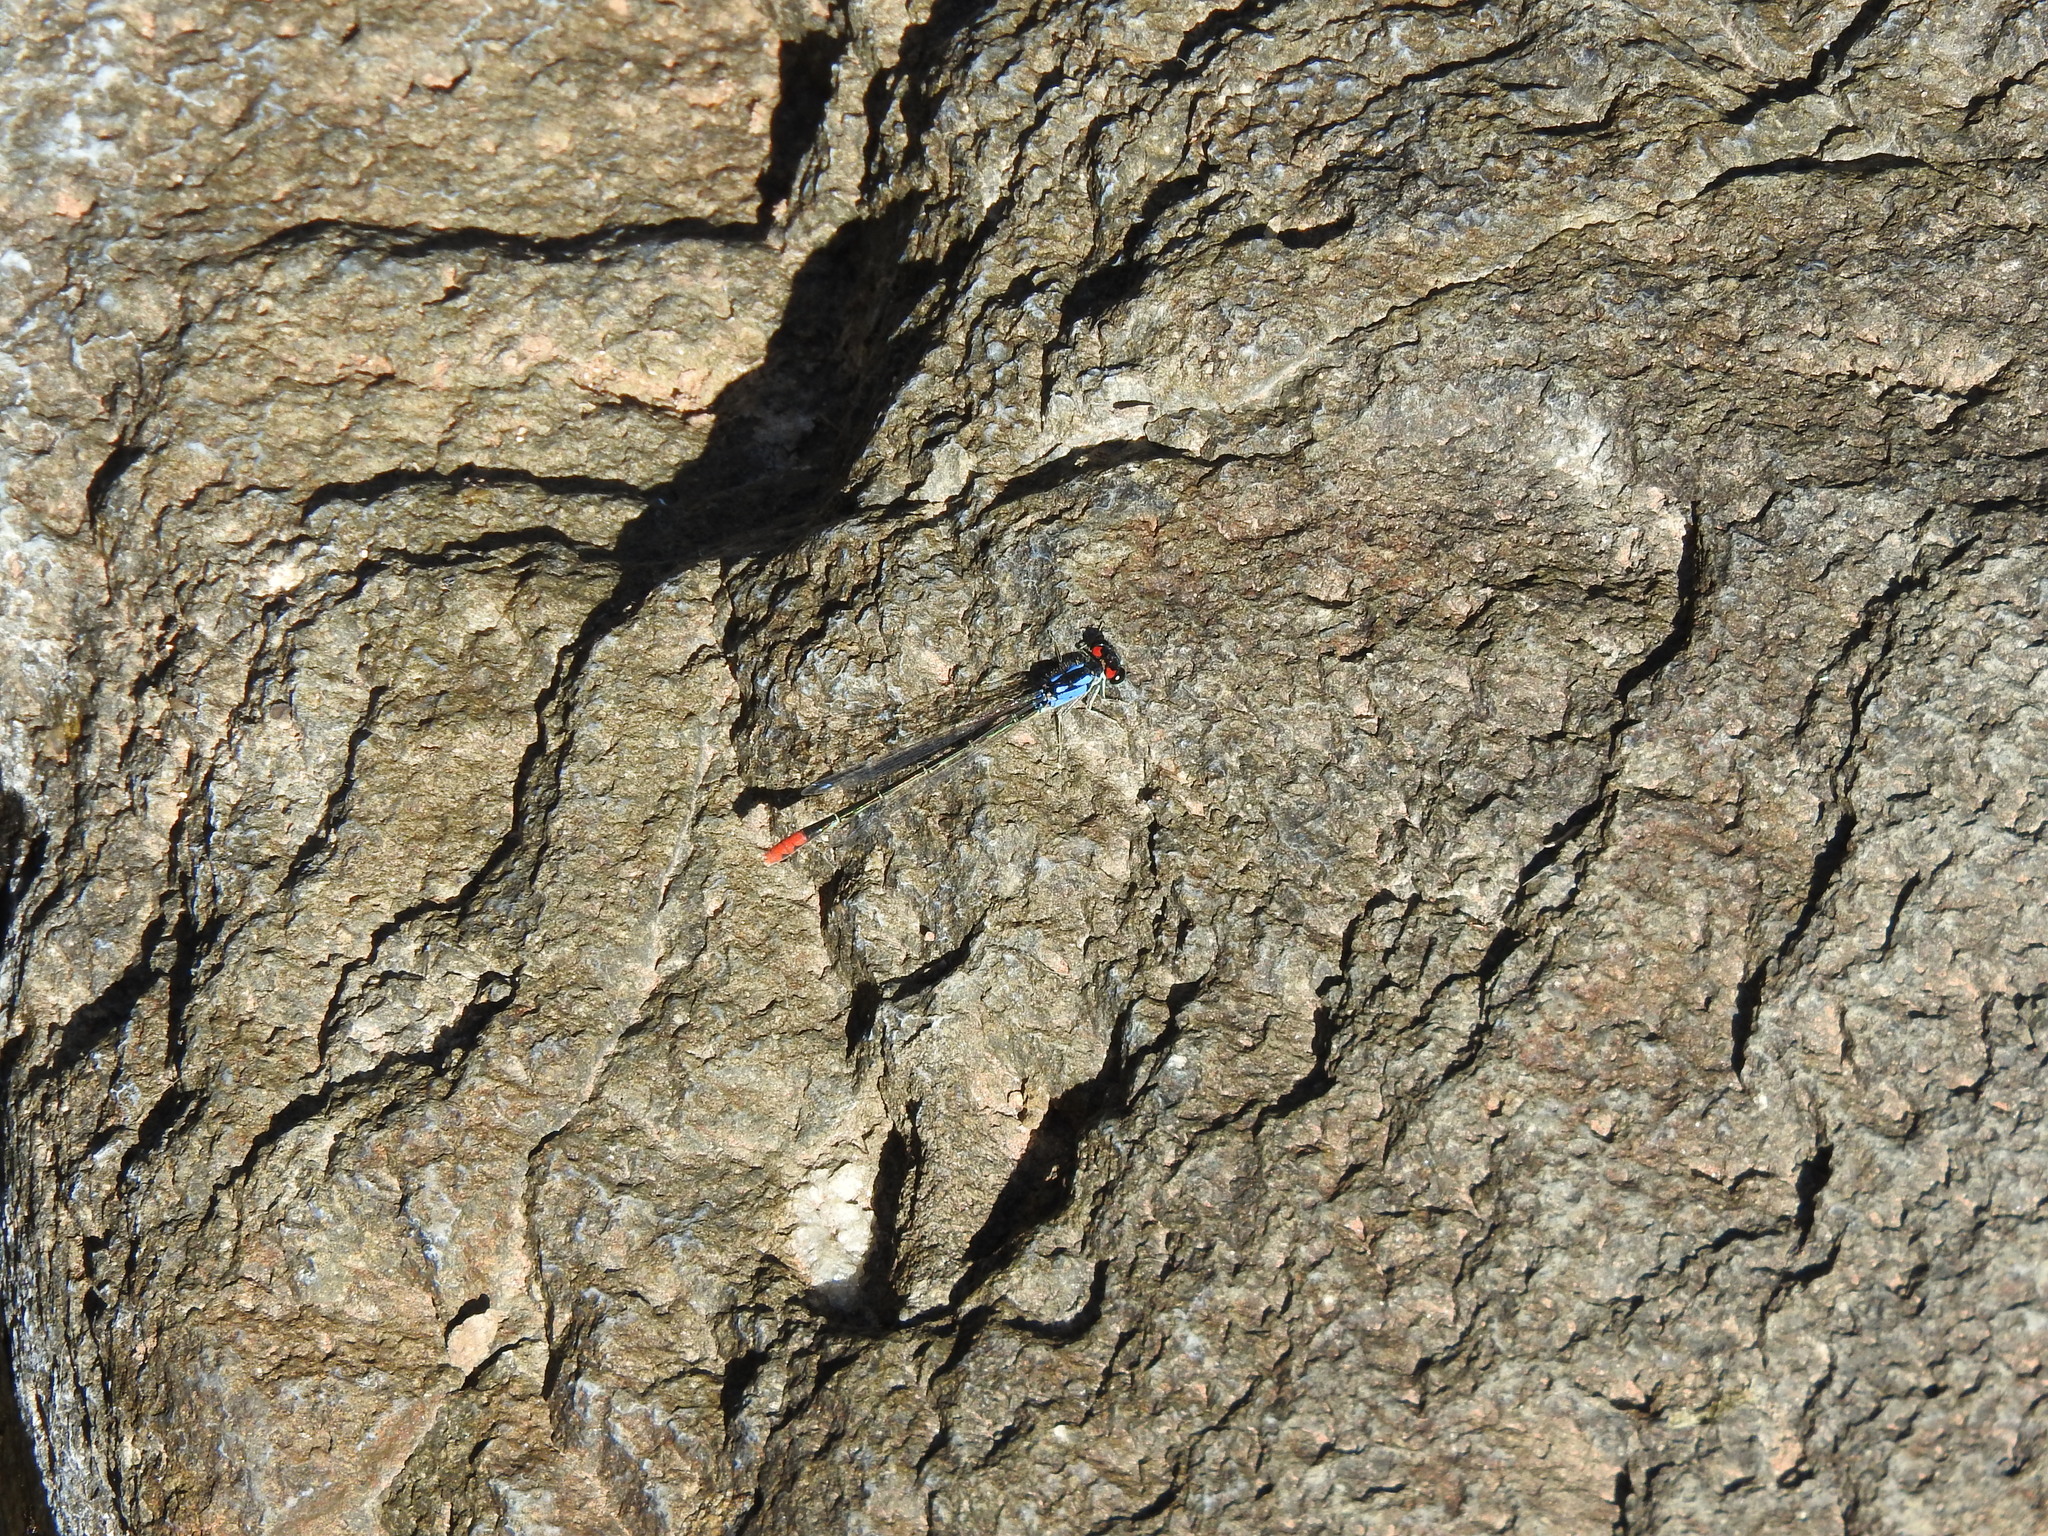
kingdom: Animalia
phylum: Arthropoda
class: Insecta
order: Odonata
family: Coenagrionidae
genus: Hesperagrion
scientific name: Hesperagrion heterodoxum
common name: Painted damsel
